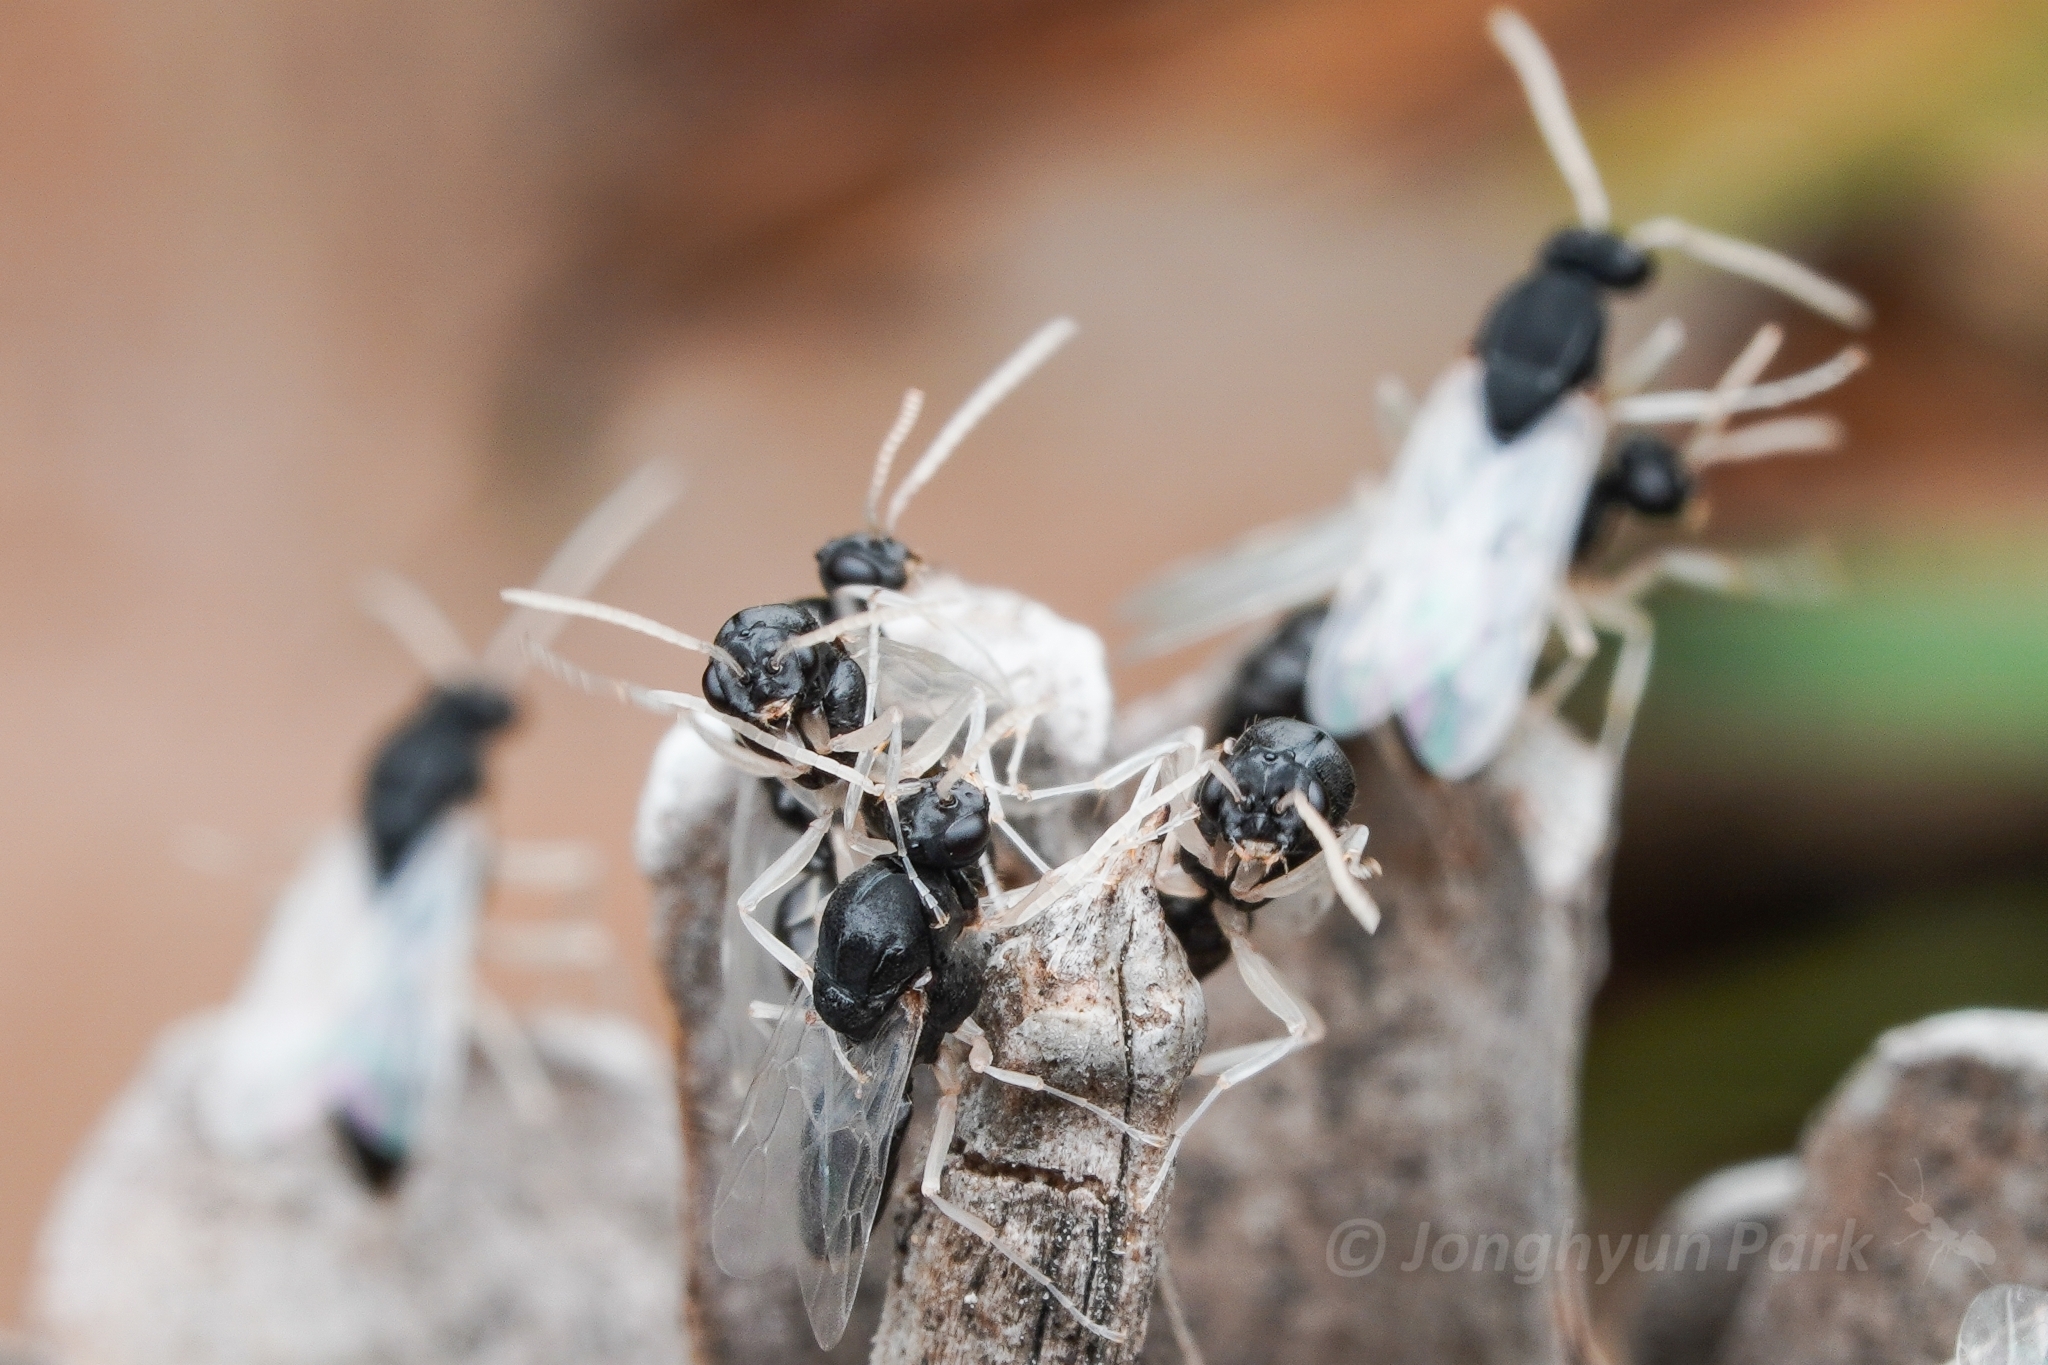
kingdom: Animalia
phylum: Arthropoda
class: Insecta
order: Hymenoptera
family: Formicidae
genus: Polyergus
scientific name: Polyergus samurai
